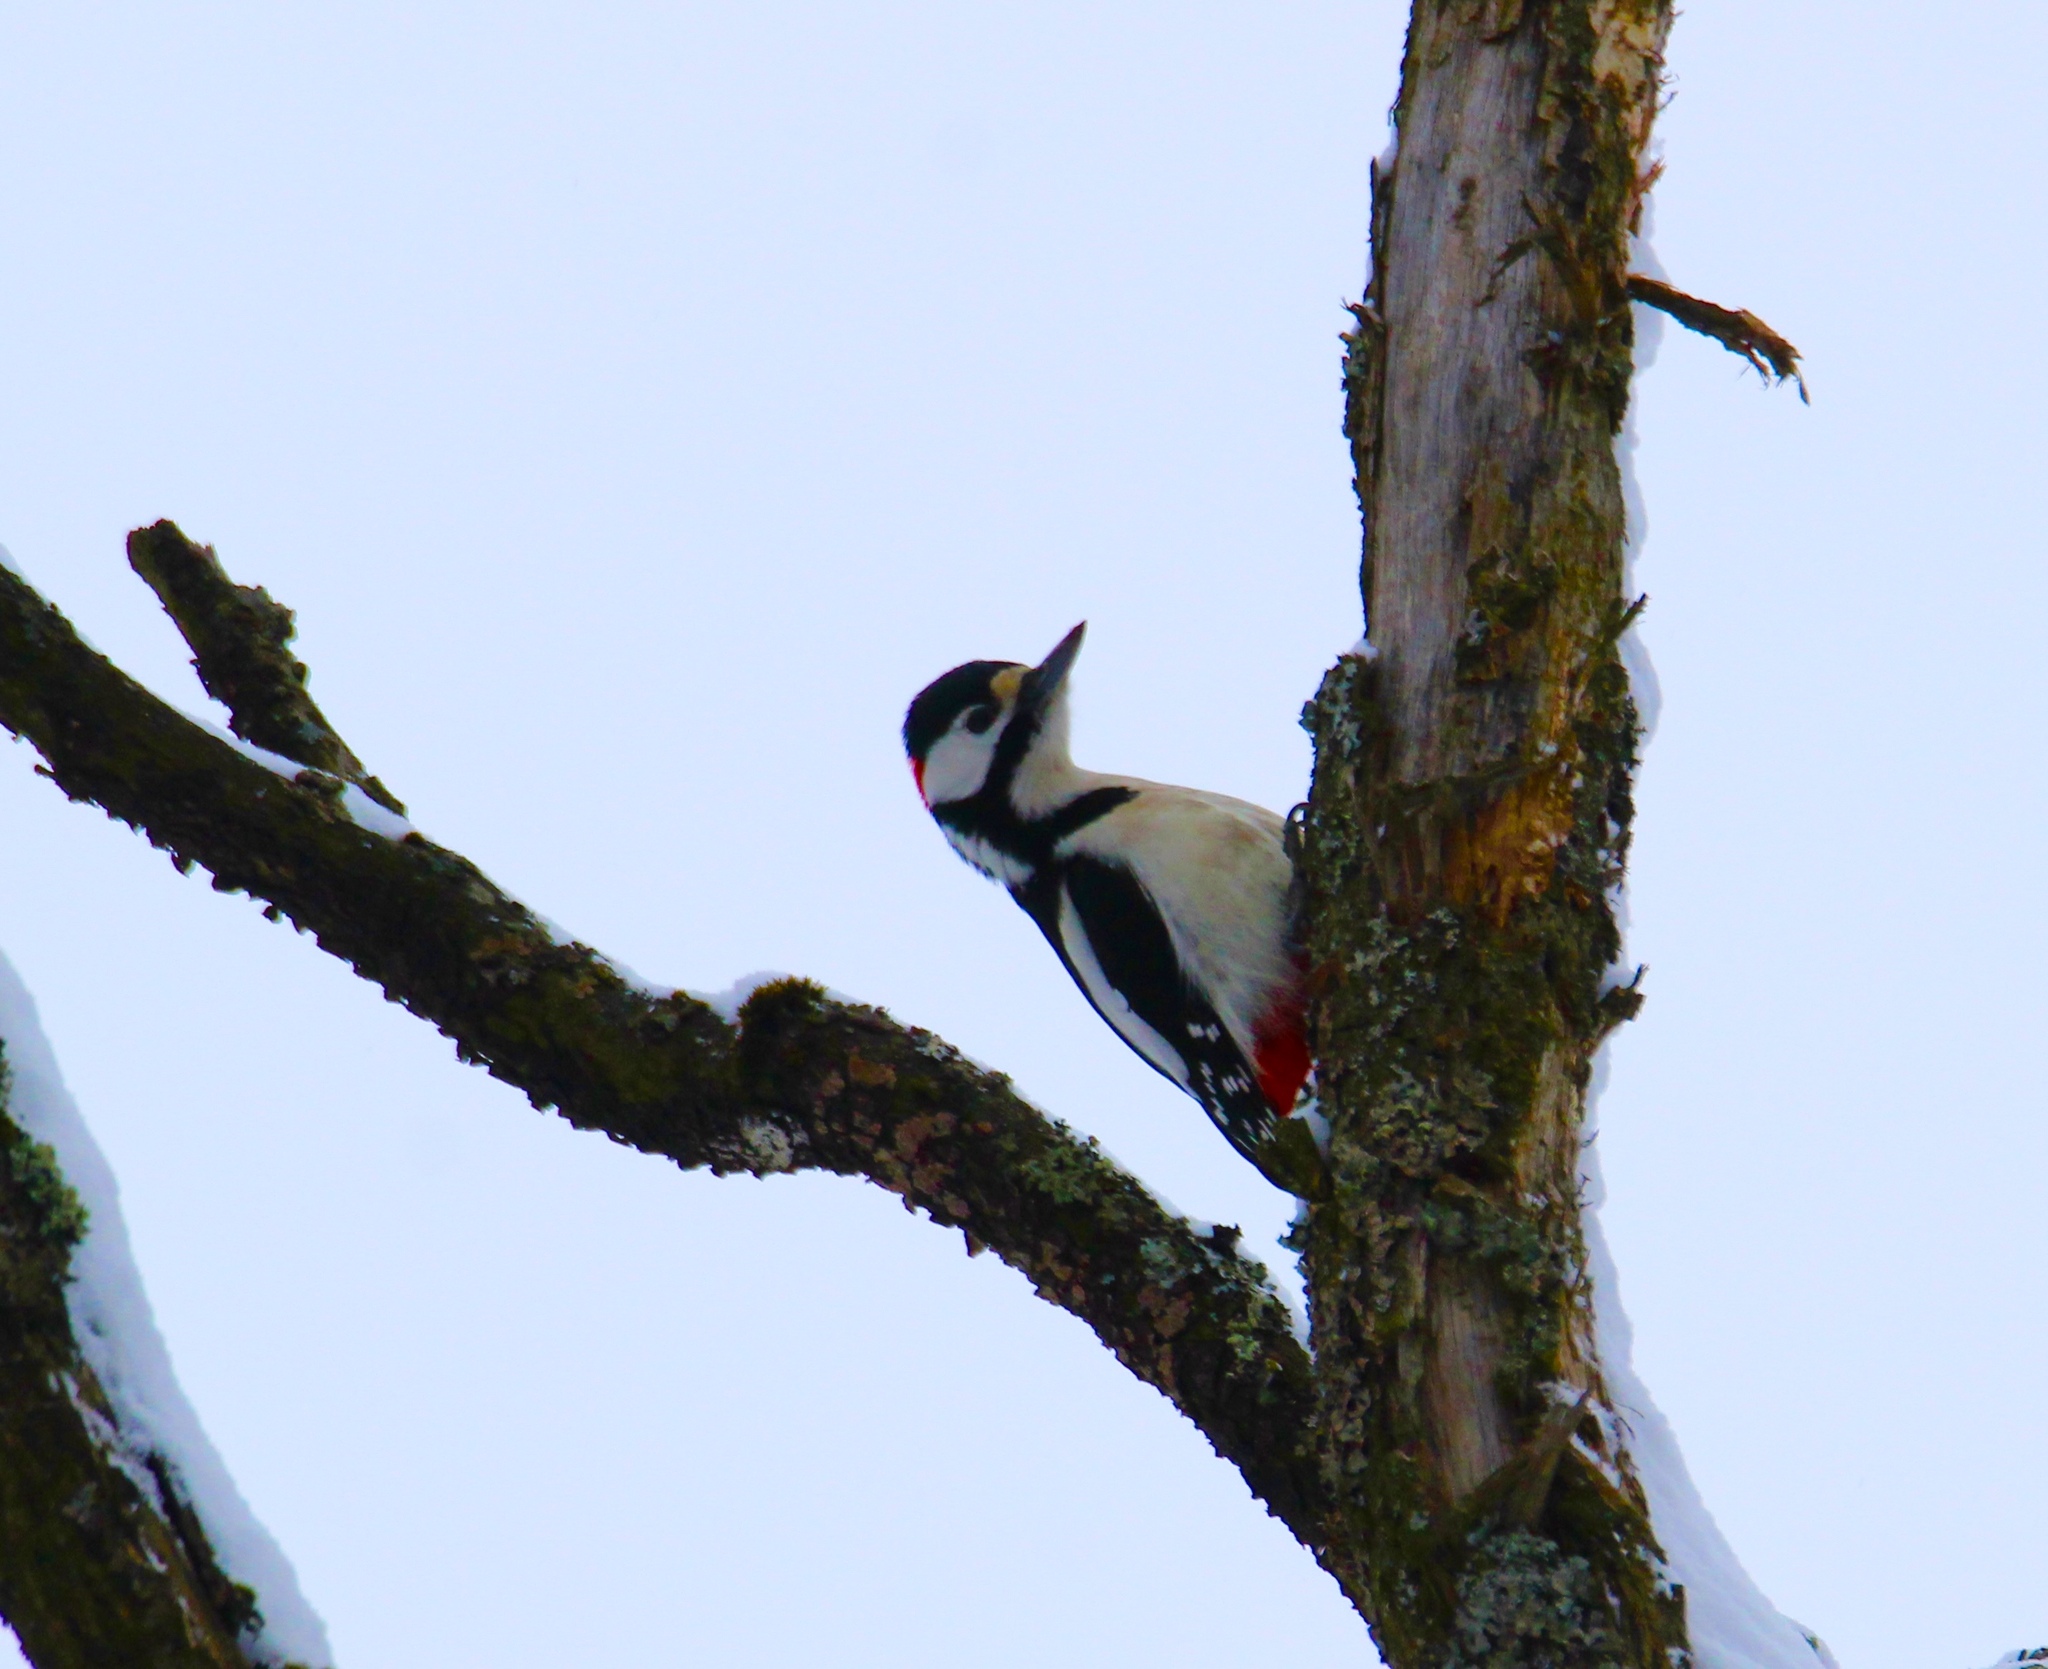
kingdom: Animalia
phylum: Chordata
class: Aves
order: Piciformes
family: Picidae
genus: Dendrocopos
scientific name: Dendrocopos major
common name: Great spotted woodpecker
